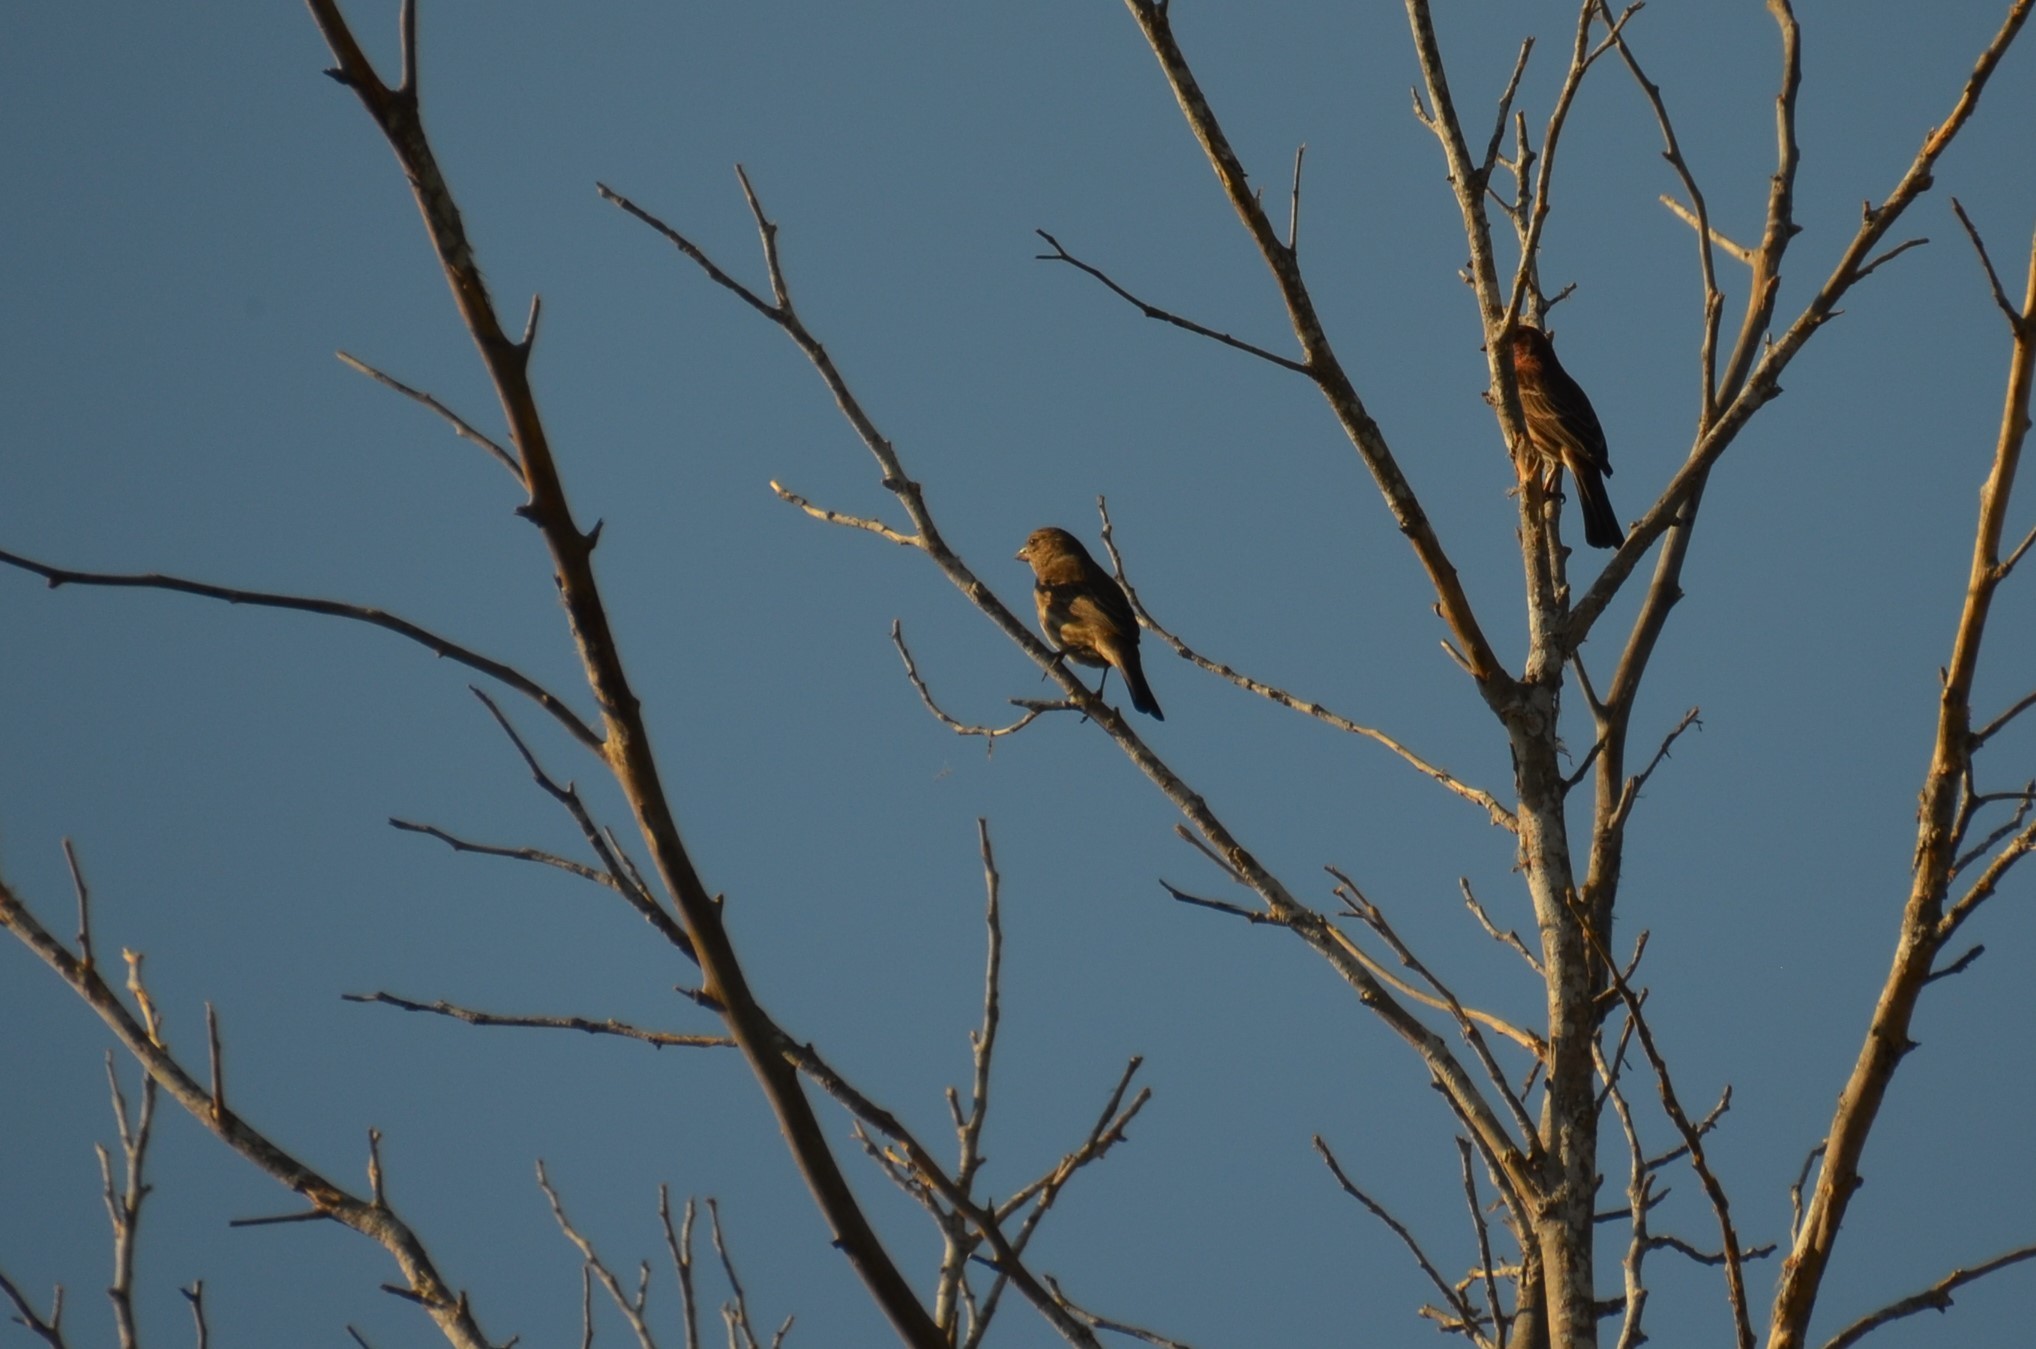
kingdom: Animalia
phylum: Chordata
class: Aves
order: Passeriformes
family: Fringillidae
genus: Haemorhous
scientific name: Haemorhous mexicanus
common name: House finch
